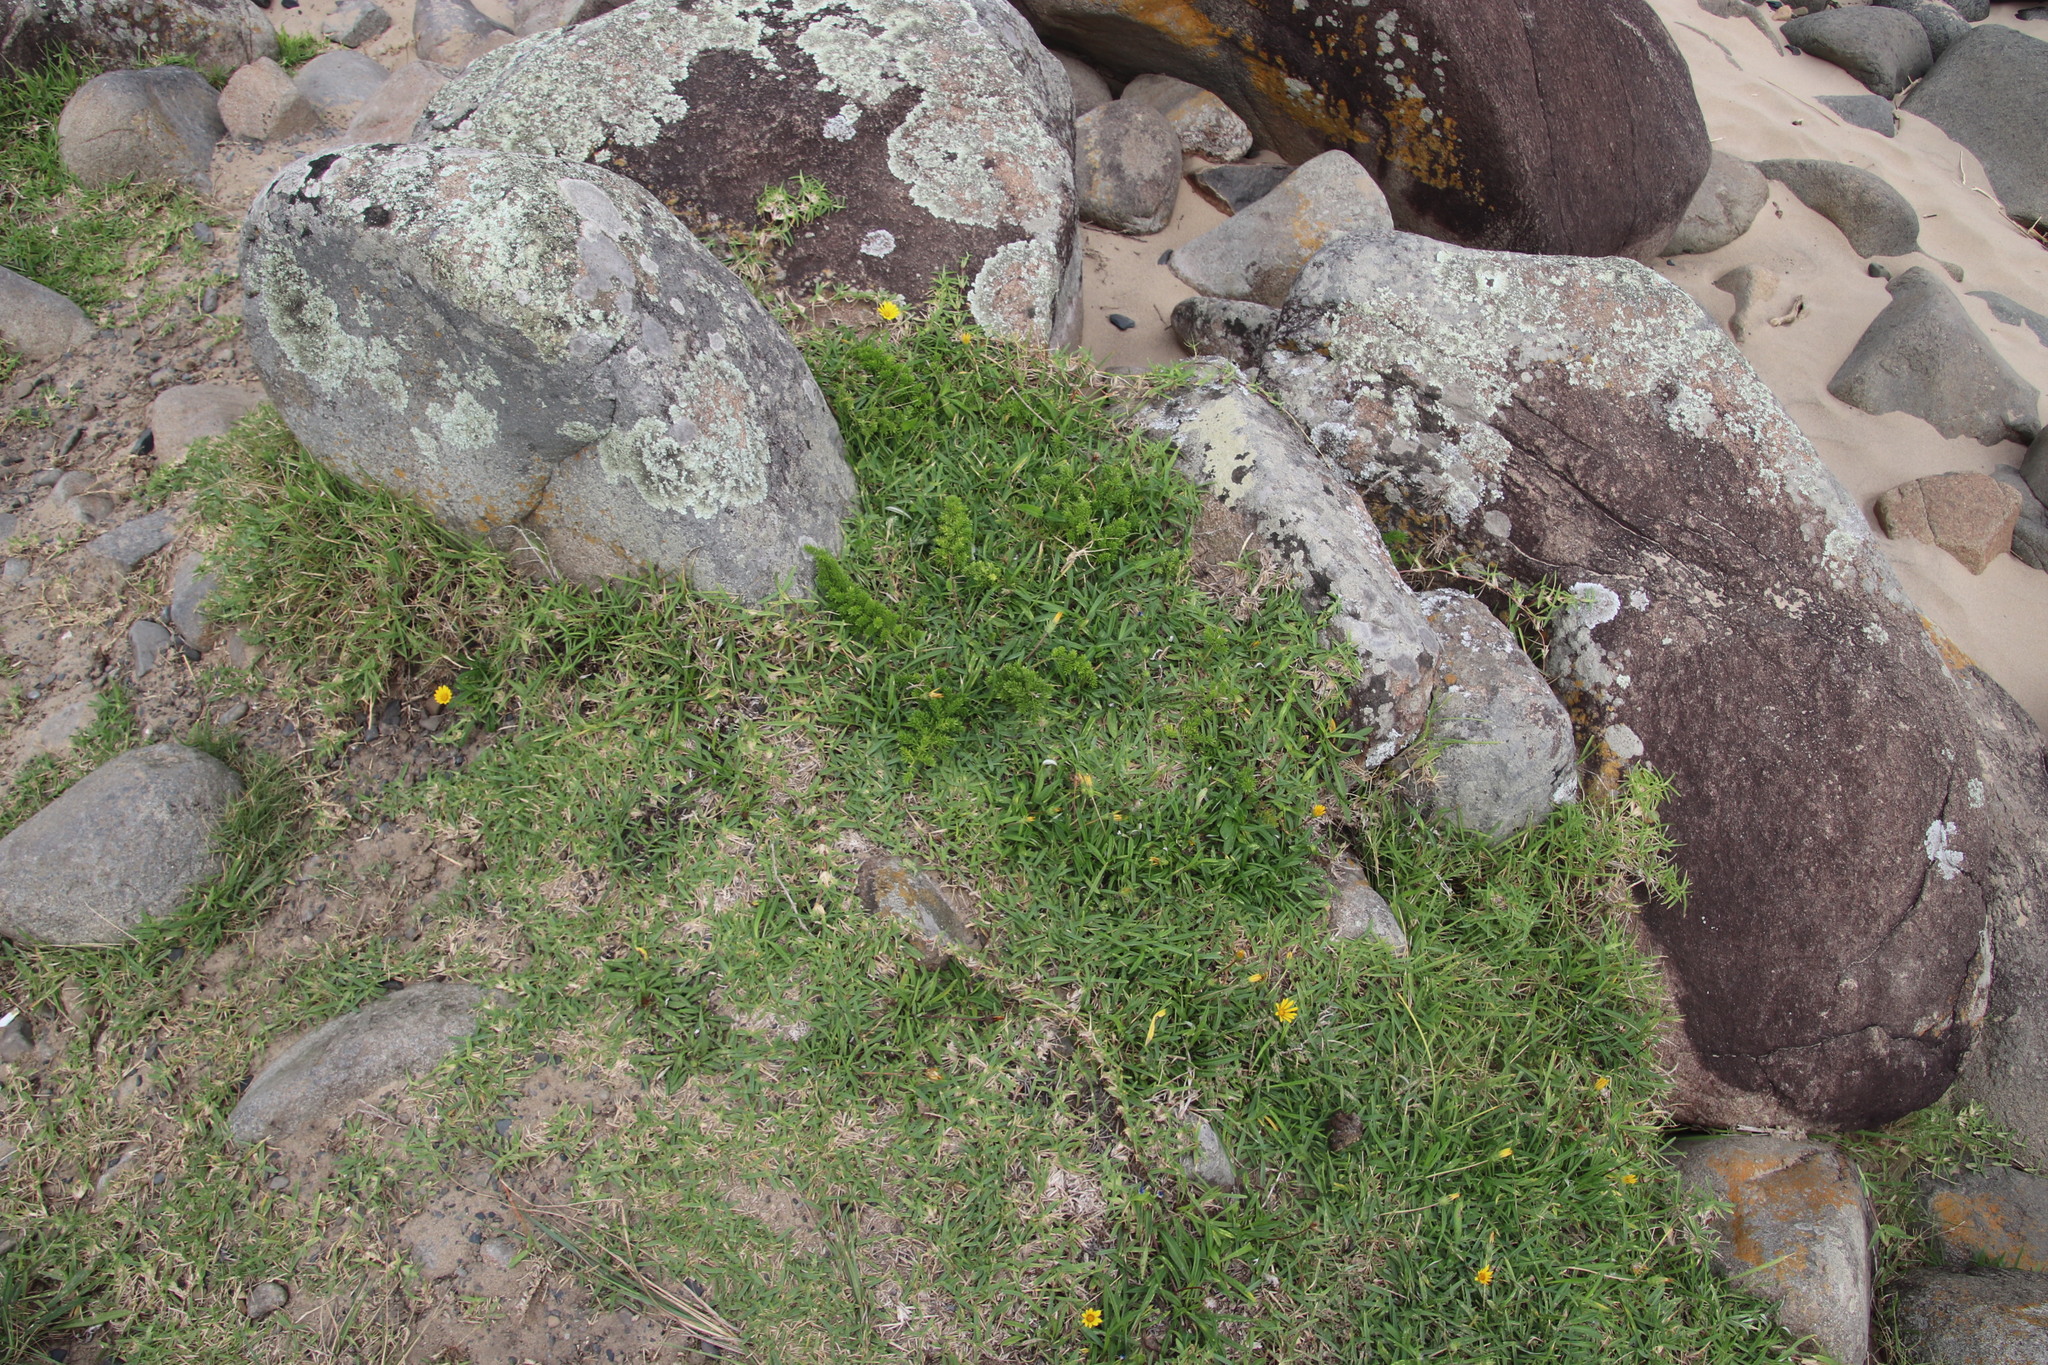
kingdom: Plantae
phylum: Tracheophyta
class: Magnoliopsida
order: Gentianales
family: Apocynaceae
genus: Schizoglossum
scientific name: Schizoglossum atropurpureum
